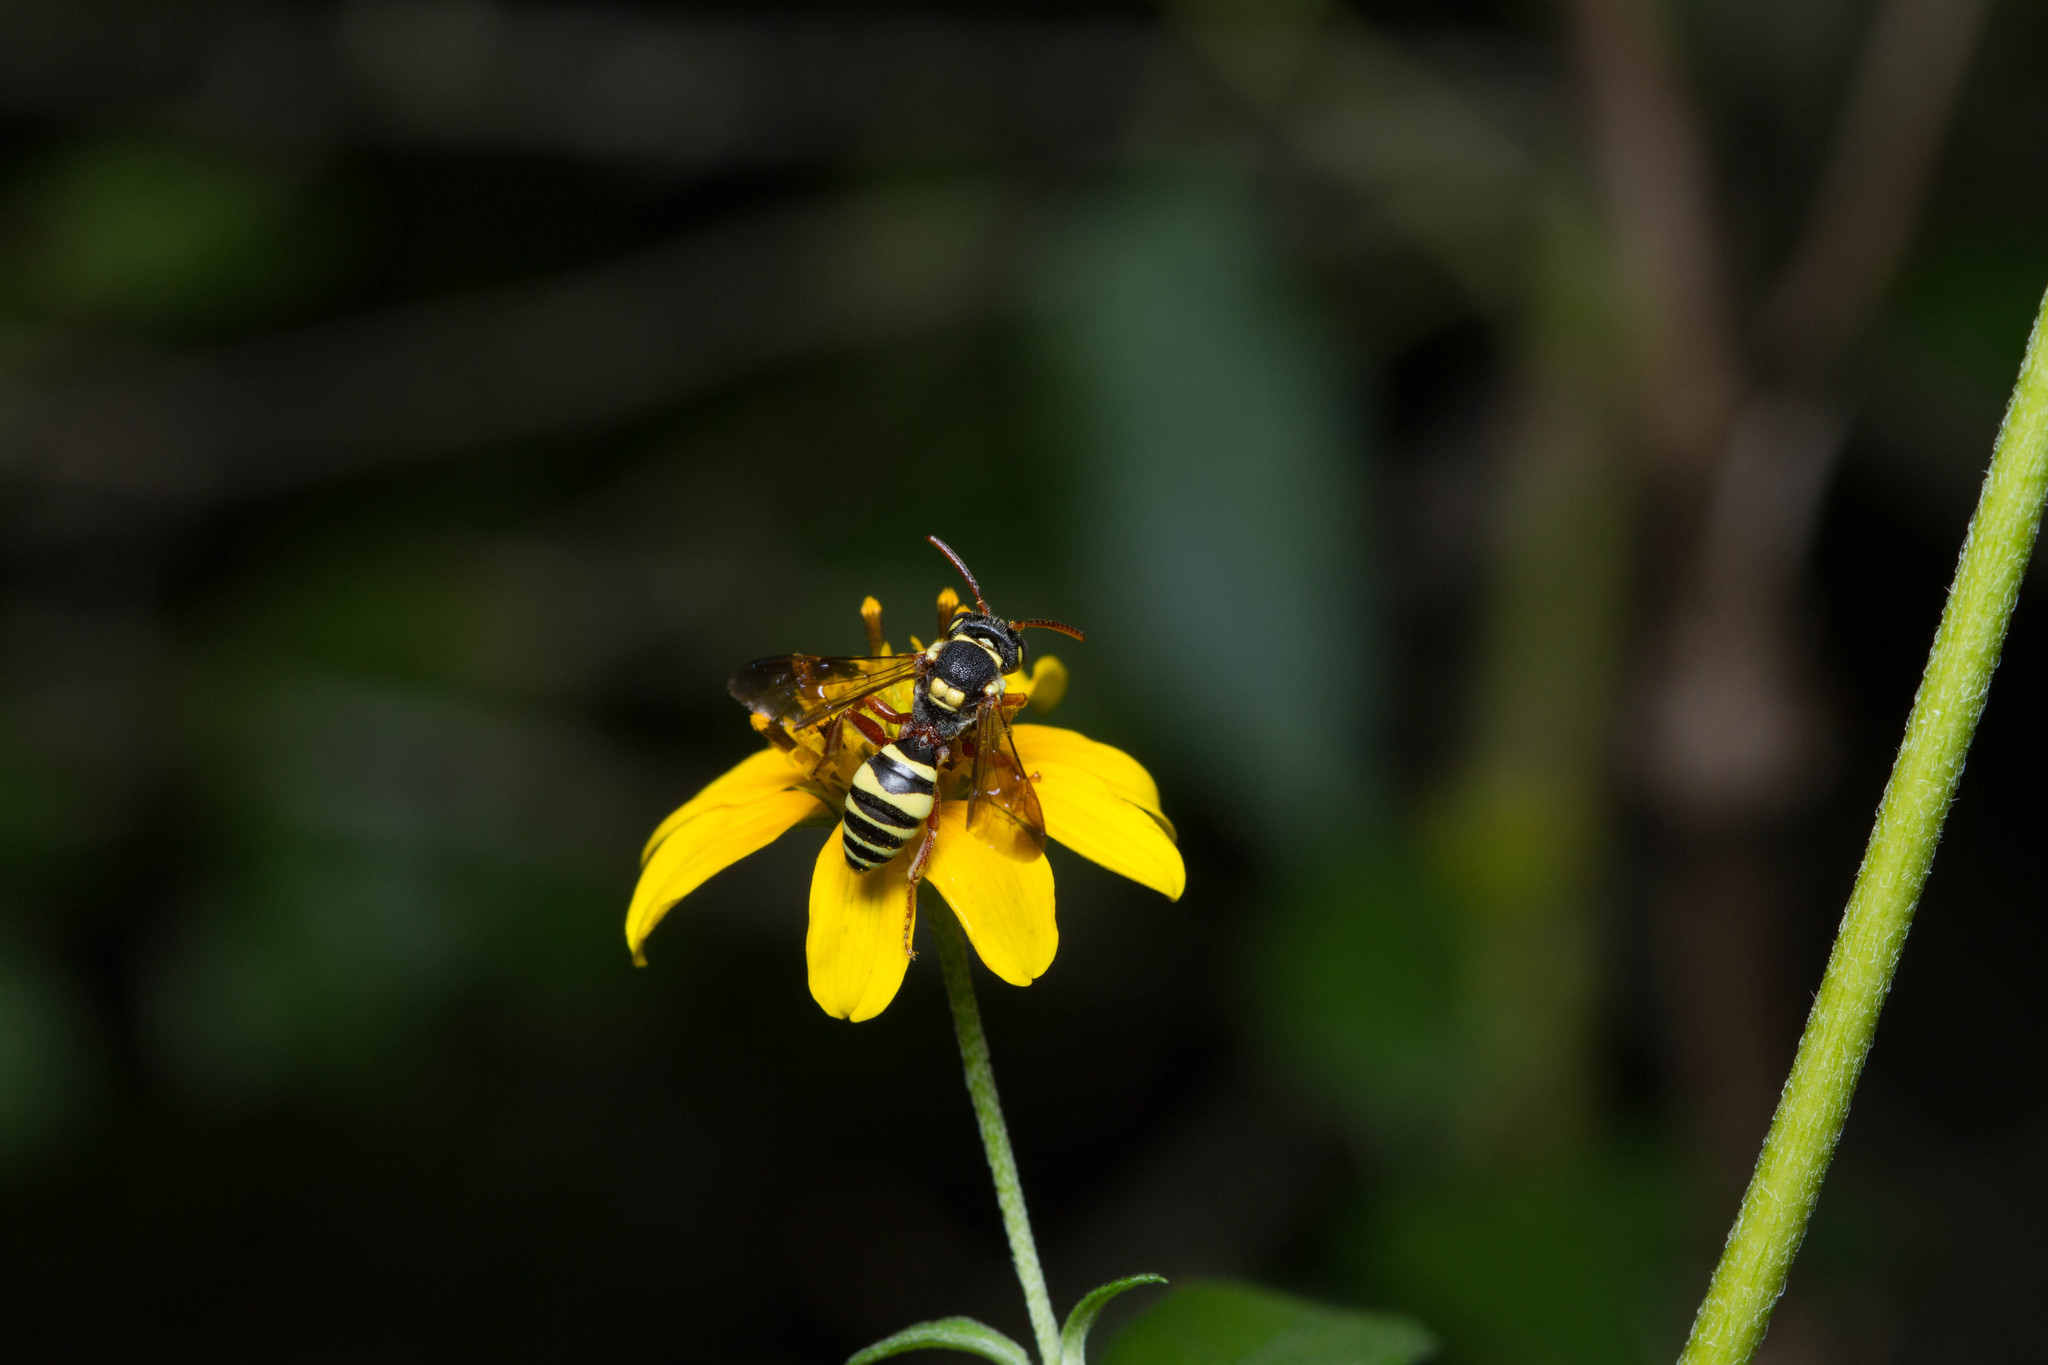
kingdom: Animalia
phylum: Arthropoda
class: Insecta
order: Hymenoptera
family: Apidae
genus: Nomada
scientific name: Nomada texana
